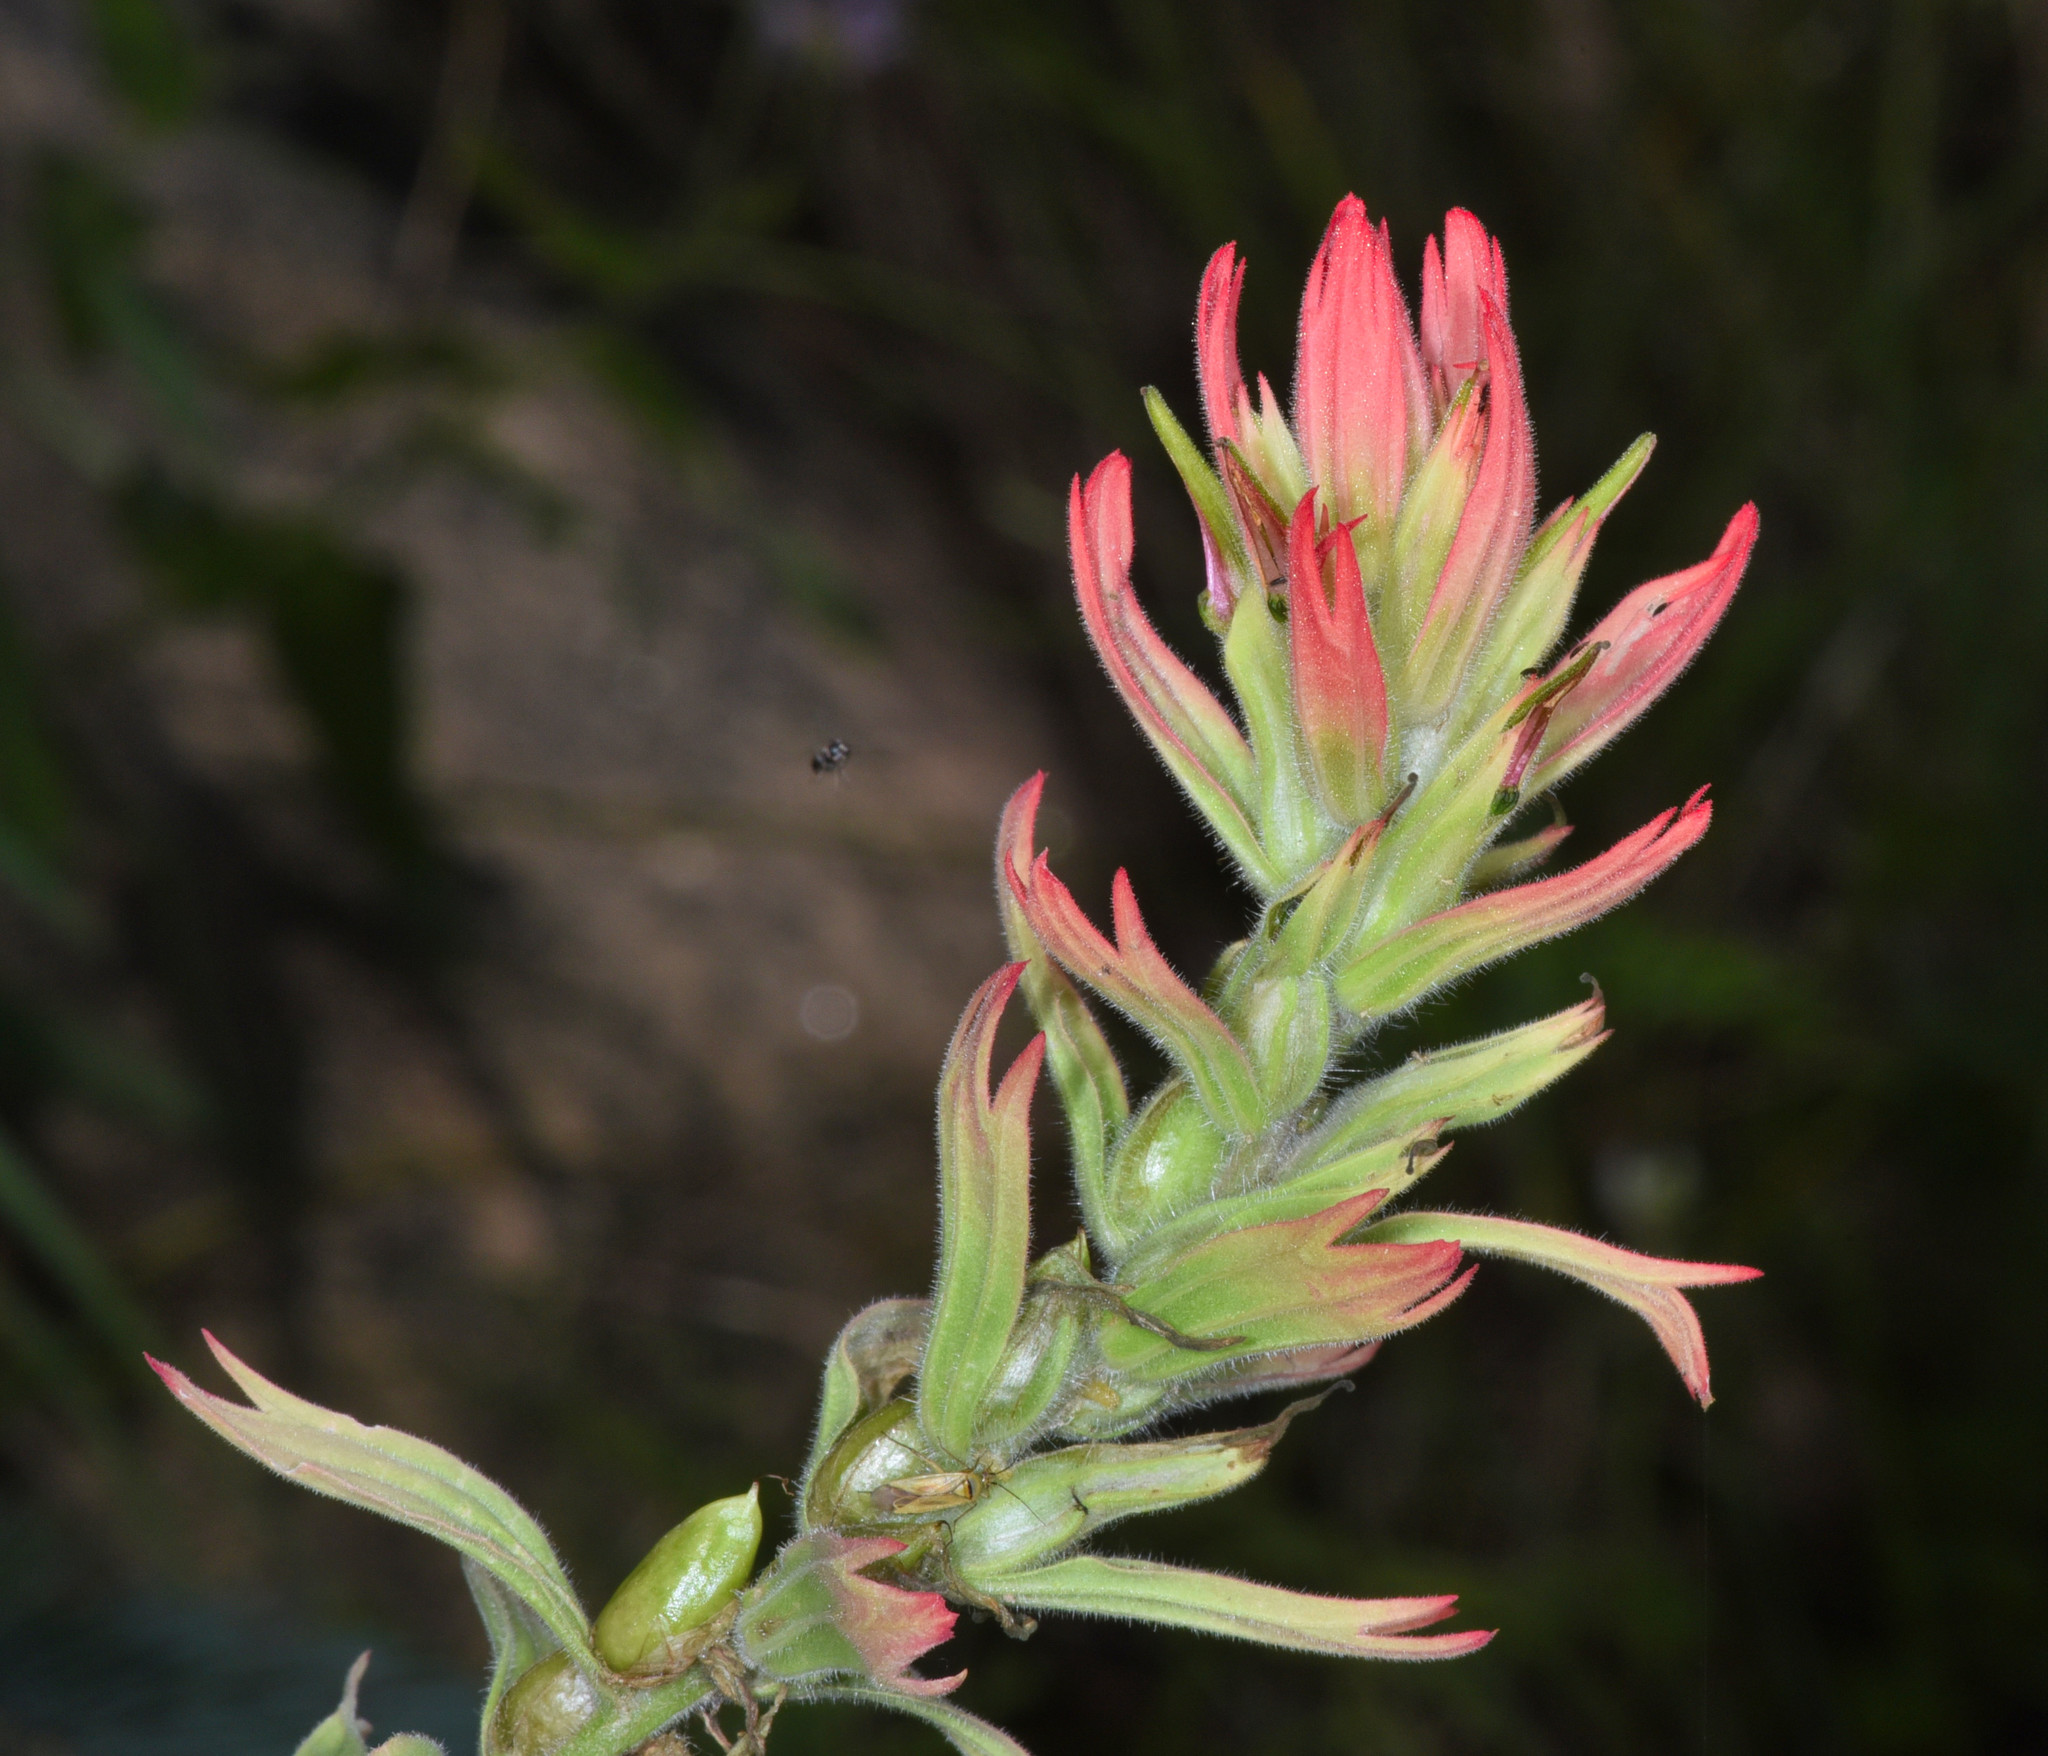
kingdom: Plantae
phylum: Tracheophyta
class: Magnoliopsida
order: Lamiales
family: Orobanchaceae
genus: Castilleja
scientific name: Castilleja miniata
